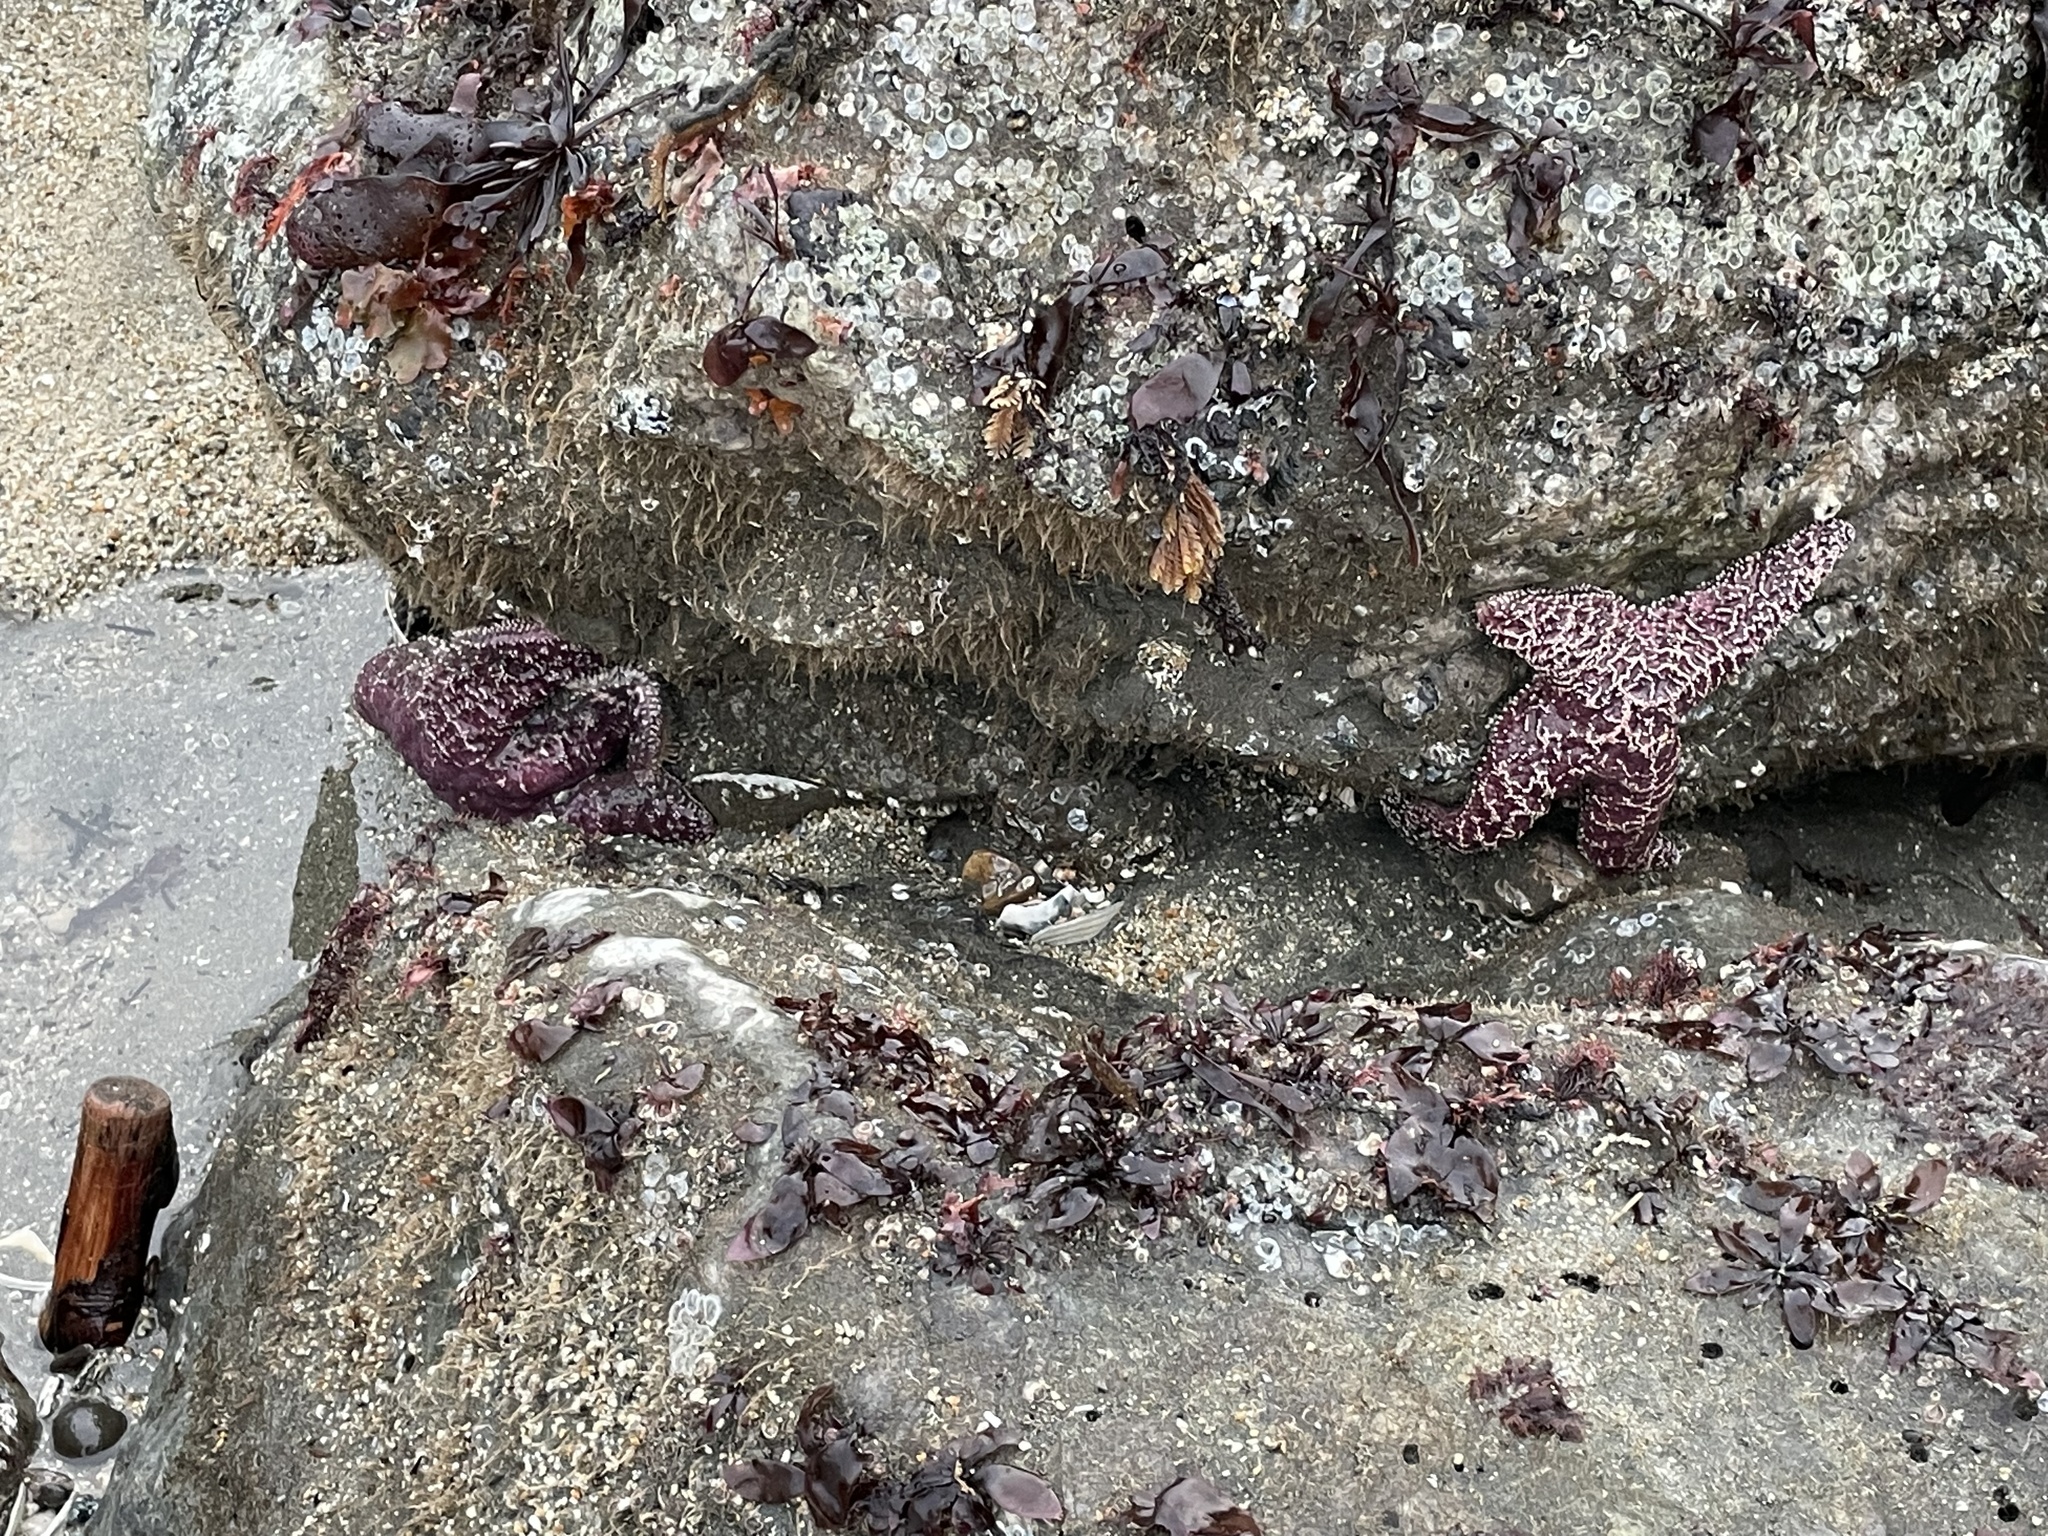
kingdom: Animalia
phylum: Echinodermata
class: Asteroidea
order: Forcipulatida
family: Asteriidae
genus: Pisaster
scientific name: Pisaster ochraceus
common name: Ochre stars
